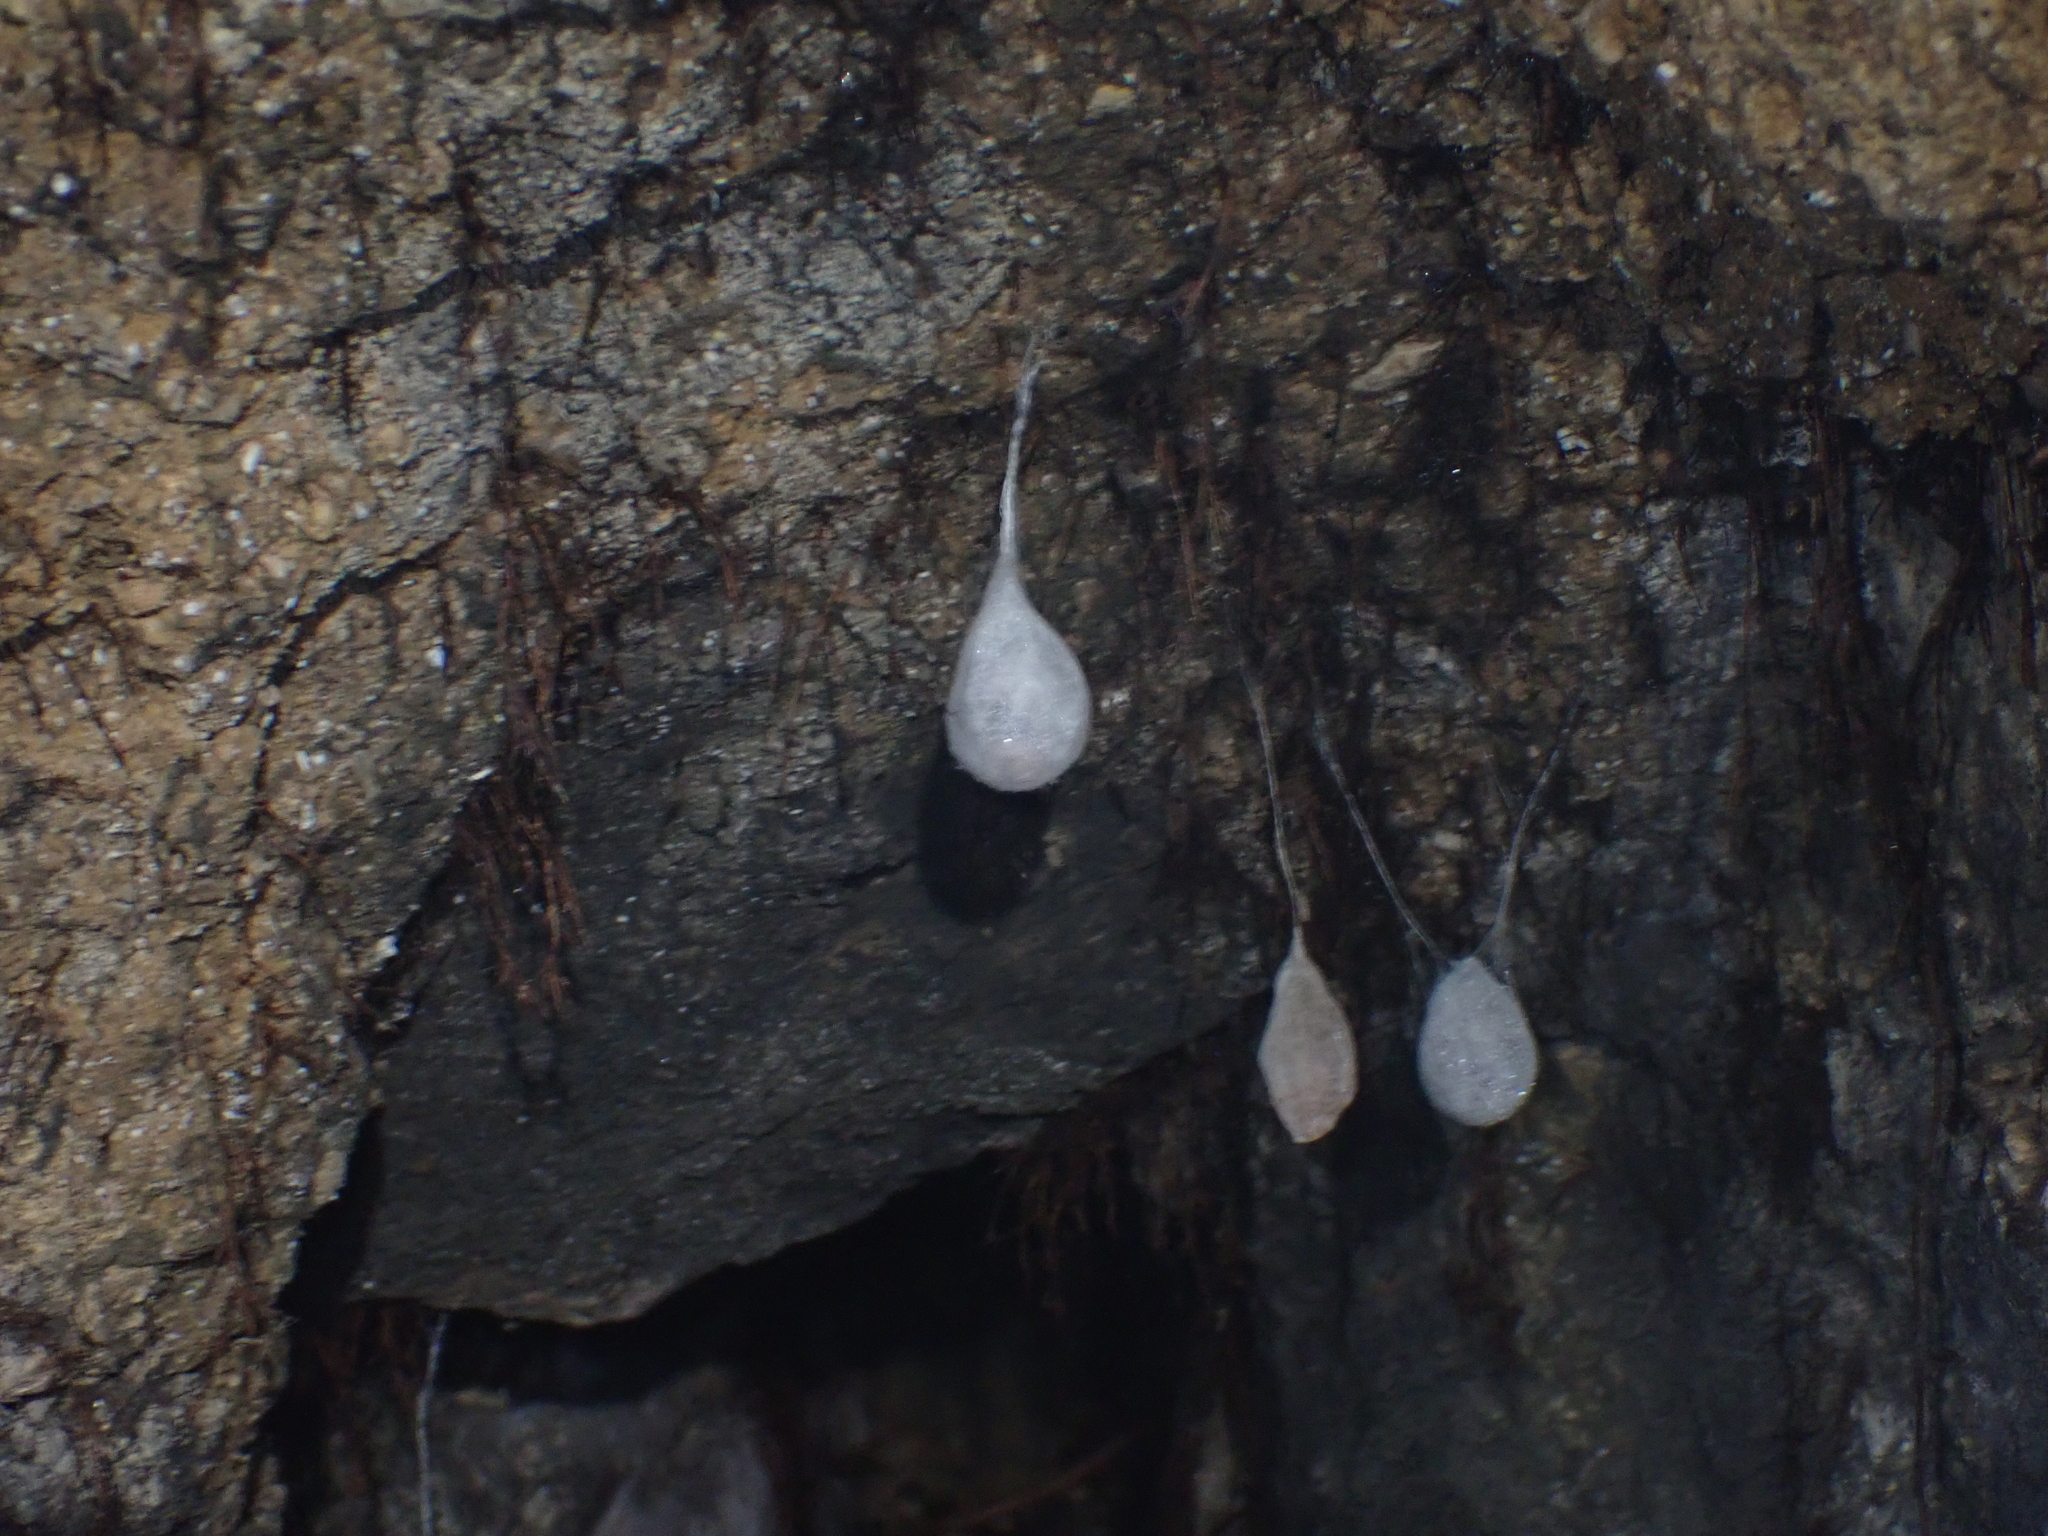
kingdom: Animalia
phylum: Arthropoda
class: Arachnida
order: Araneae
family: Tetragnathidae
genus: Meta
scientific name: Meta menardi
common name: Cave spider
